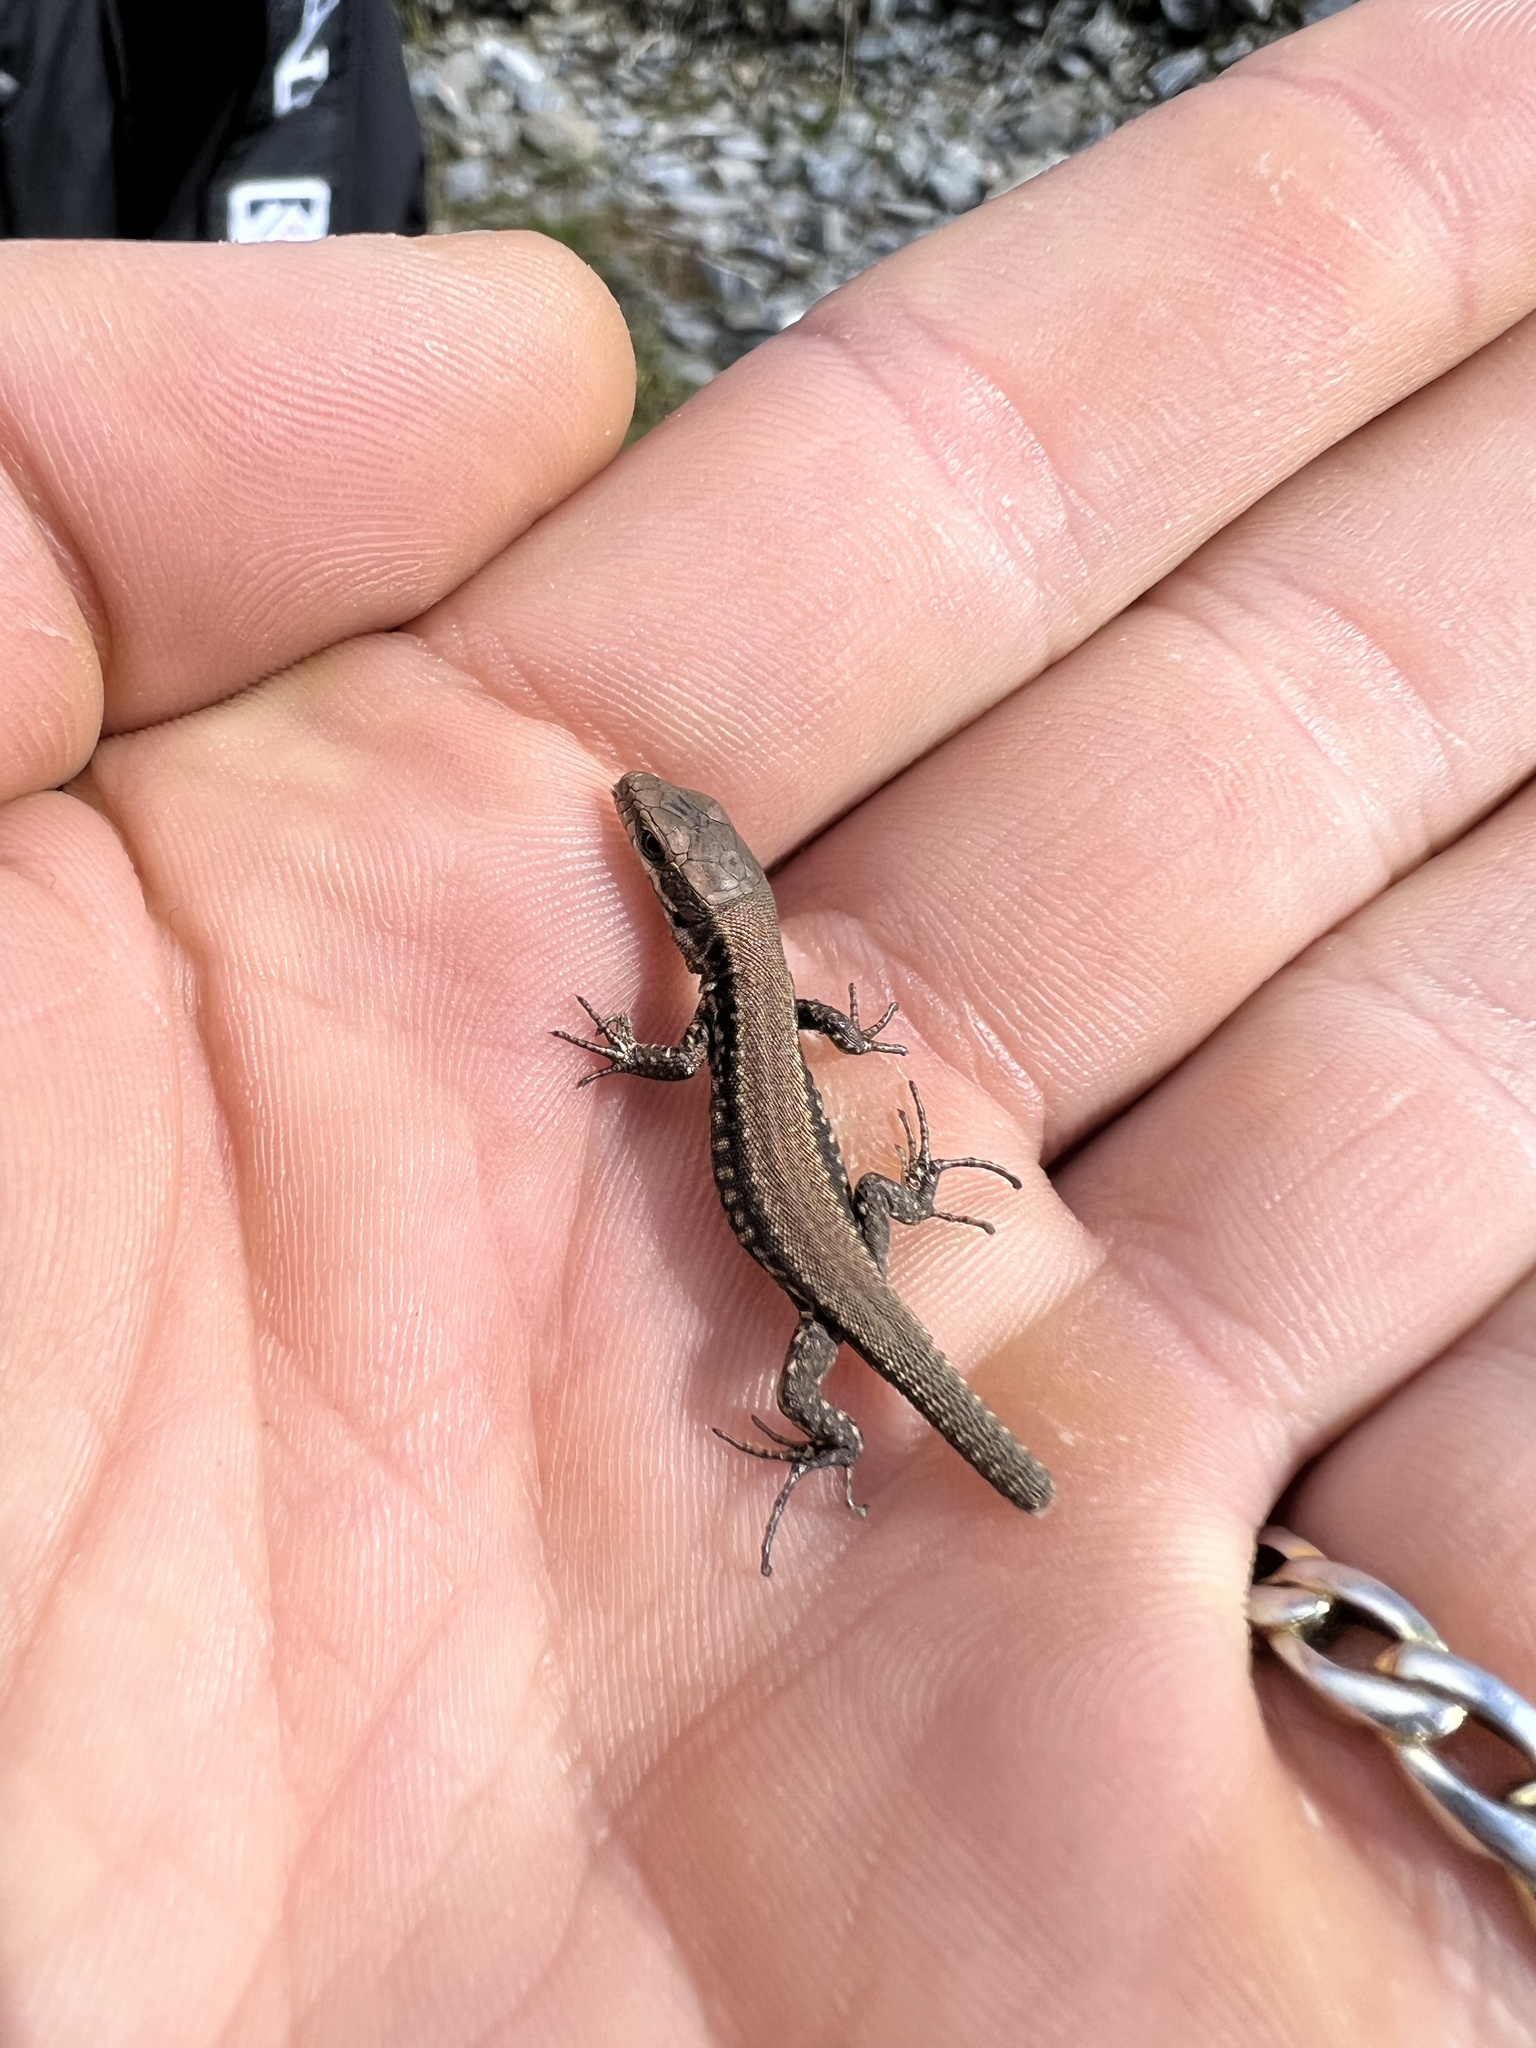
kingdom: Animalia
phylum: Chordata
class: Squamata
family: Lacertidae
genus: Podarcis
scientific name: Podarcis muralis
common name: Common wall lizard
